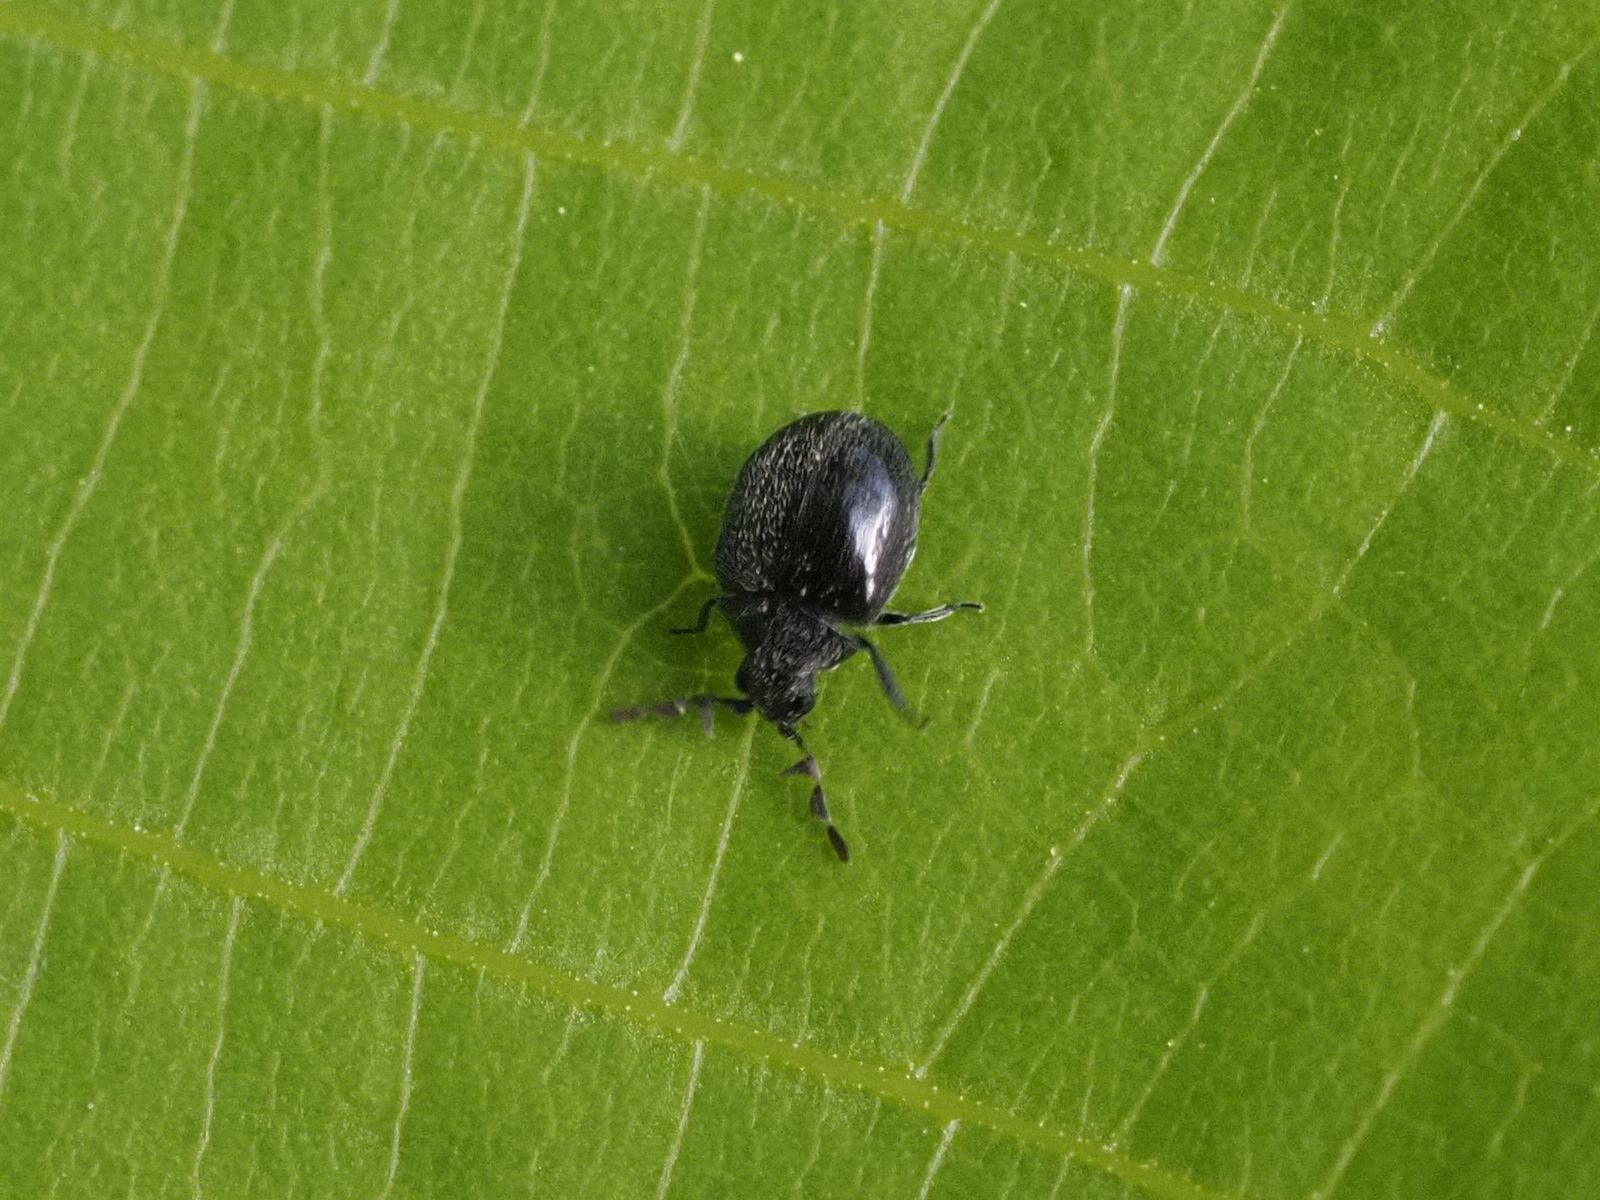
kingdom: Animalia
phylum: Arthropoda
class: Insecta
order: Coleoptera
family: Anobiidae
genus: Caenocara
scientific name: Caenocara bovistae
